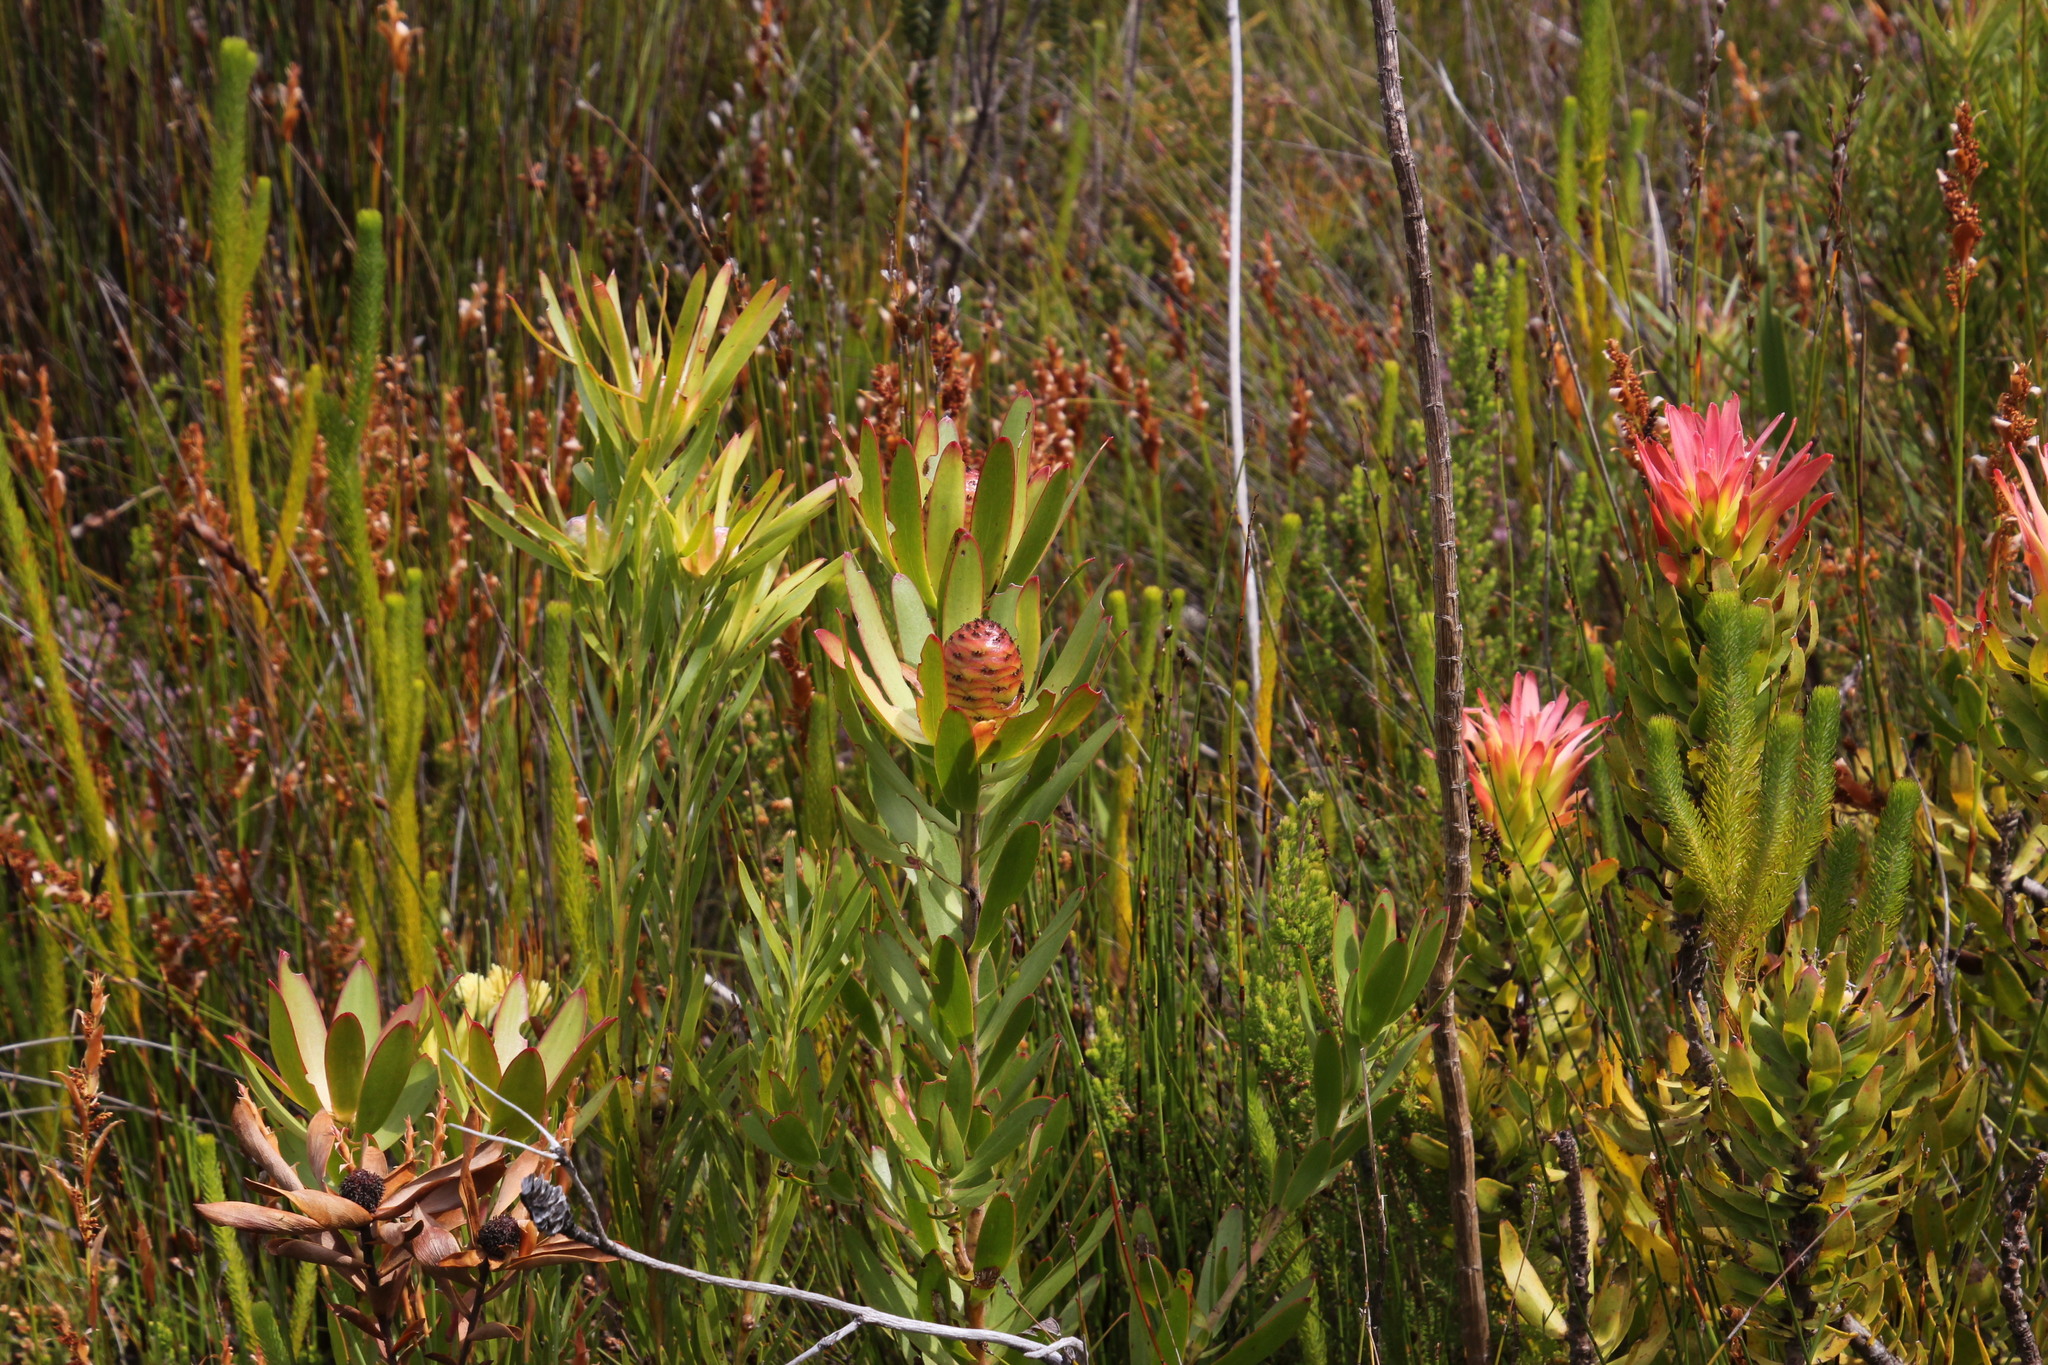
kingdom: Plantae
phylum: Tracheophyta
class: Magnoliopsida
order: Proteales
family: Proteaceae
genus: Leucadendron
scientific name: Leucadendron
